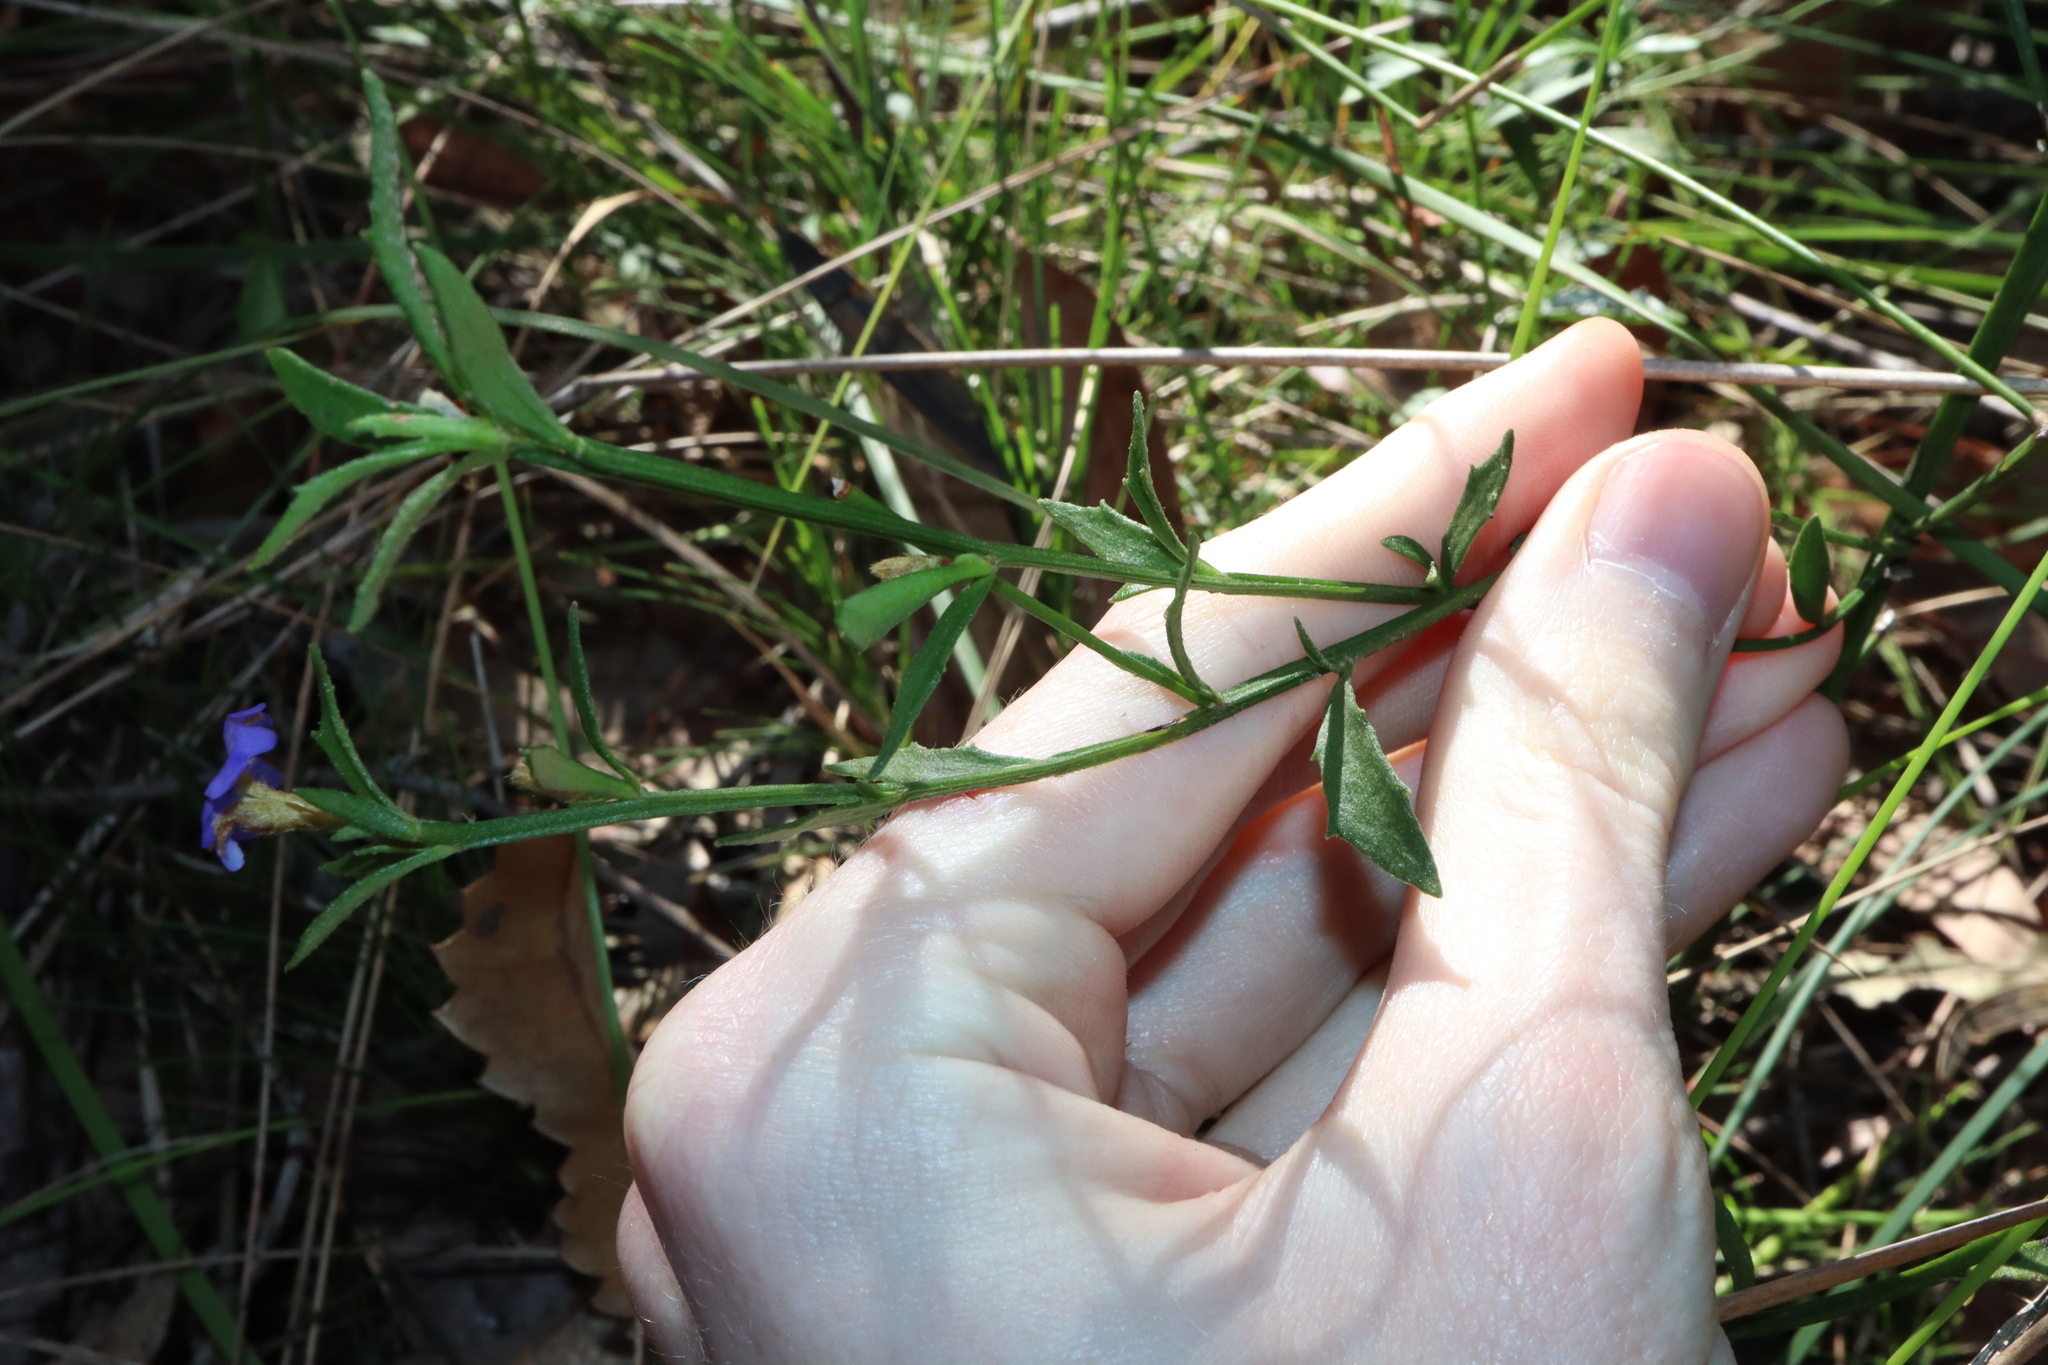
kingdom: Plantae
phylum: Tracheophyta
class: Magnoliopsida
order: Asterales
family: Goodeniaceae
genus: Dampiera
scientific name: Dampiera stricta
